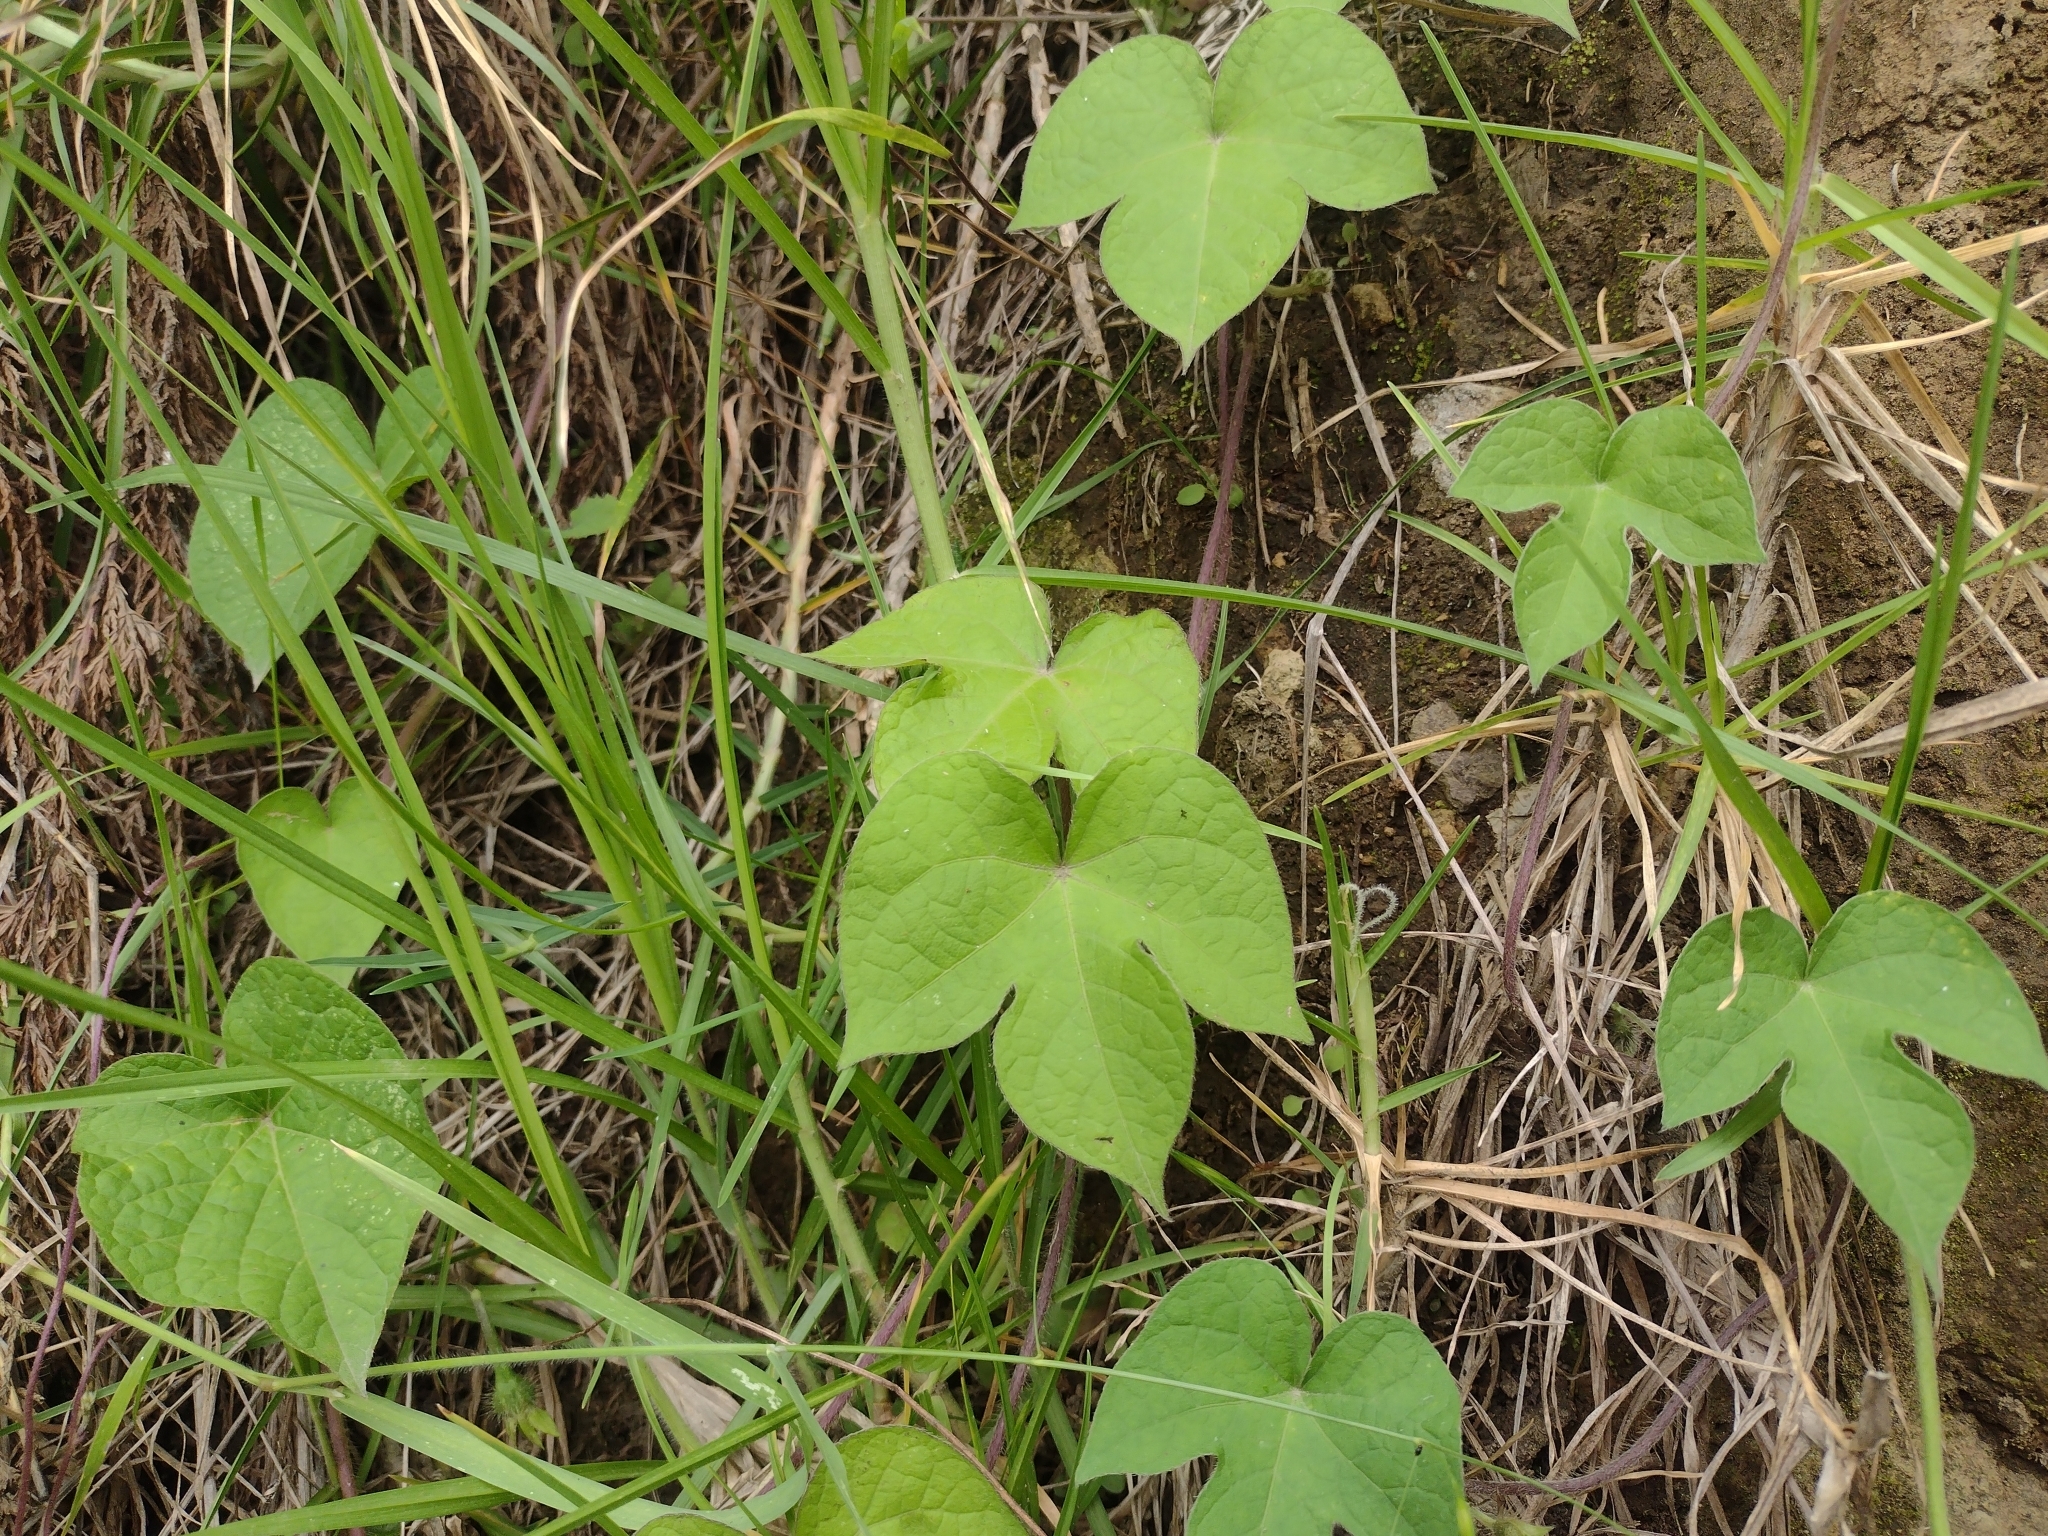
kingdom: Plantae
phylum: Tracheophyta
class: Magnoliopsida
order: Solanales
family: Convolvulaceae
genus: Ipomoea
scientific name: Ipomoea purpurea
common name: Common morning-glory
